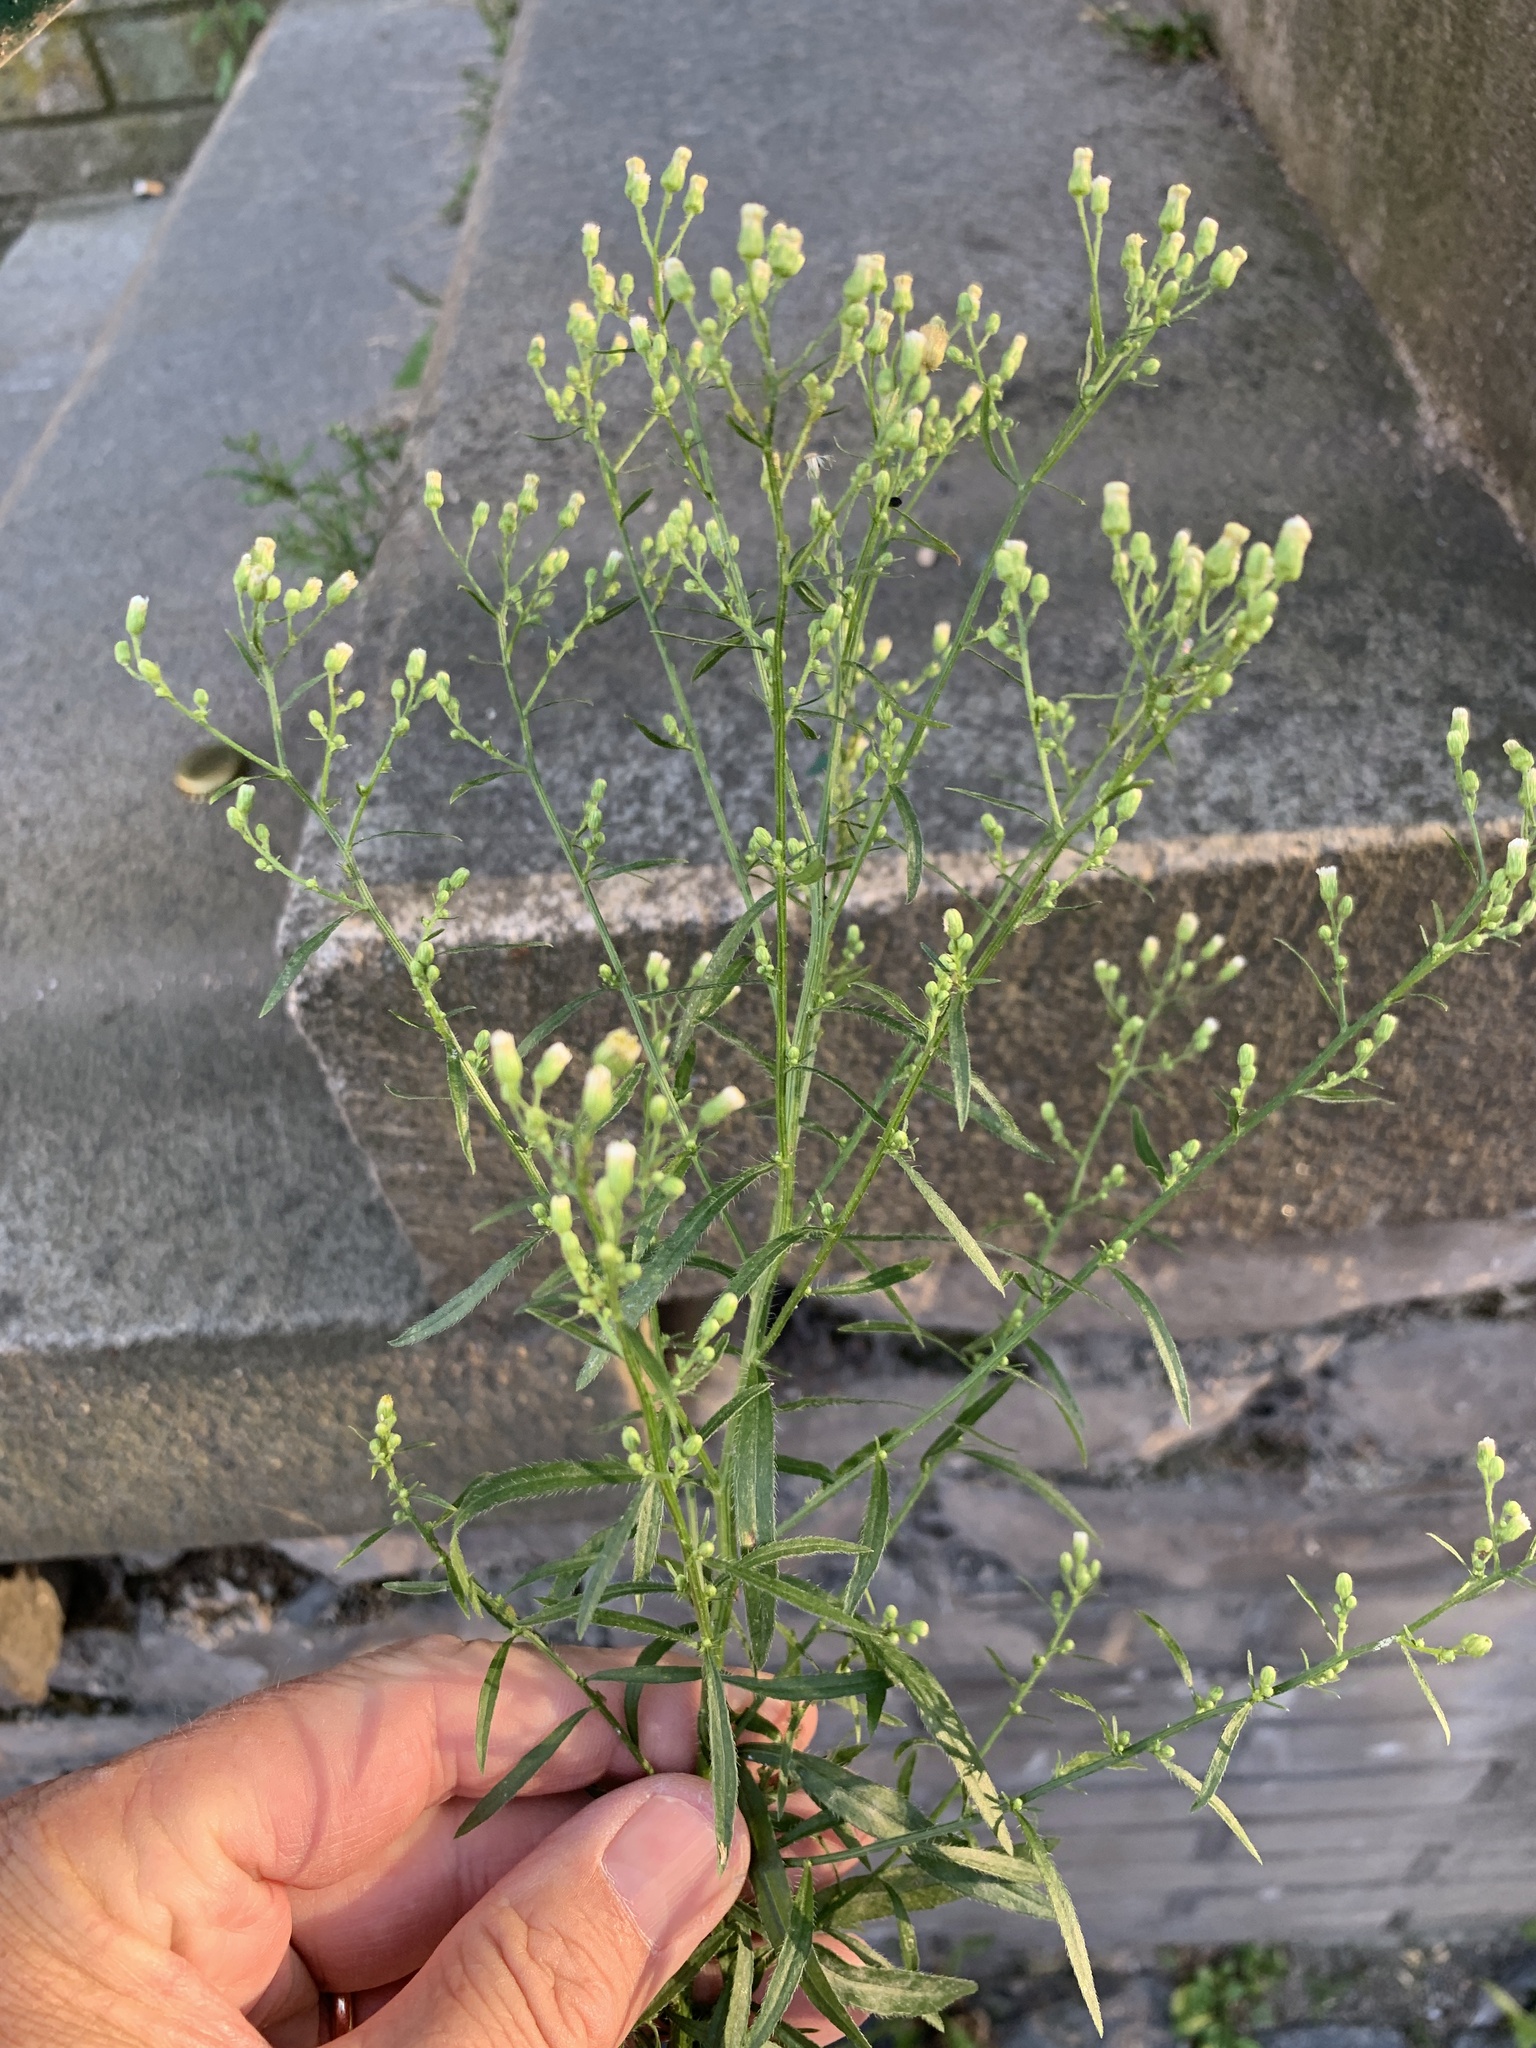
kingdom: Plantae
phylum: Tracheophyta
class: Magnoliopsida
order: Asterales
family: Asteraceae
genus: Erigeron
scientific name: Erigeron canadensis
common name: Canadian fleabane
